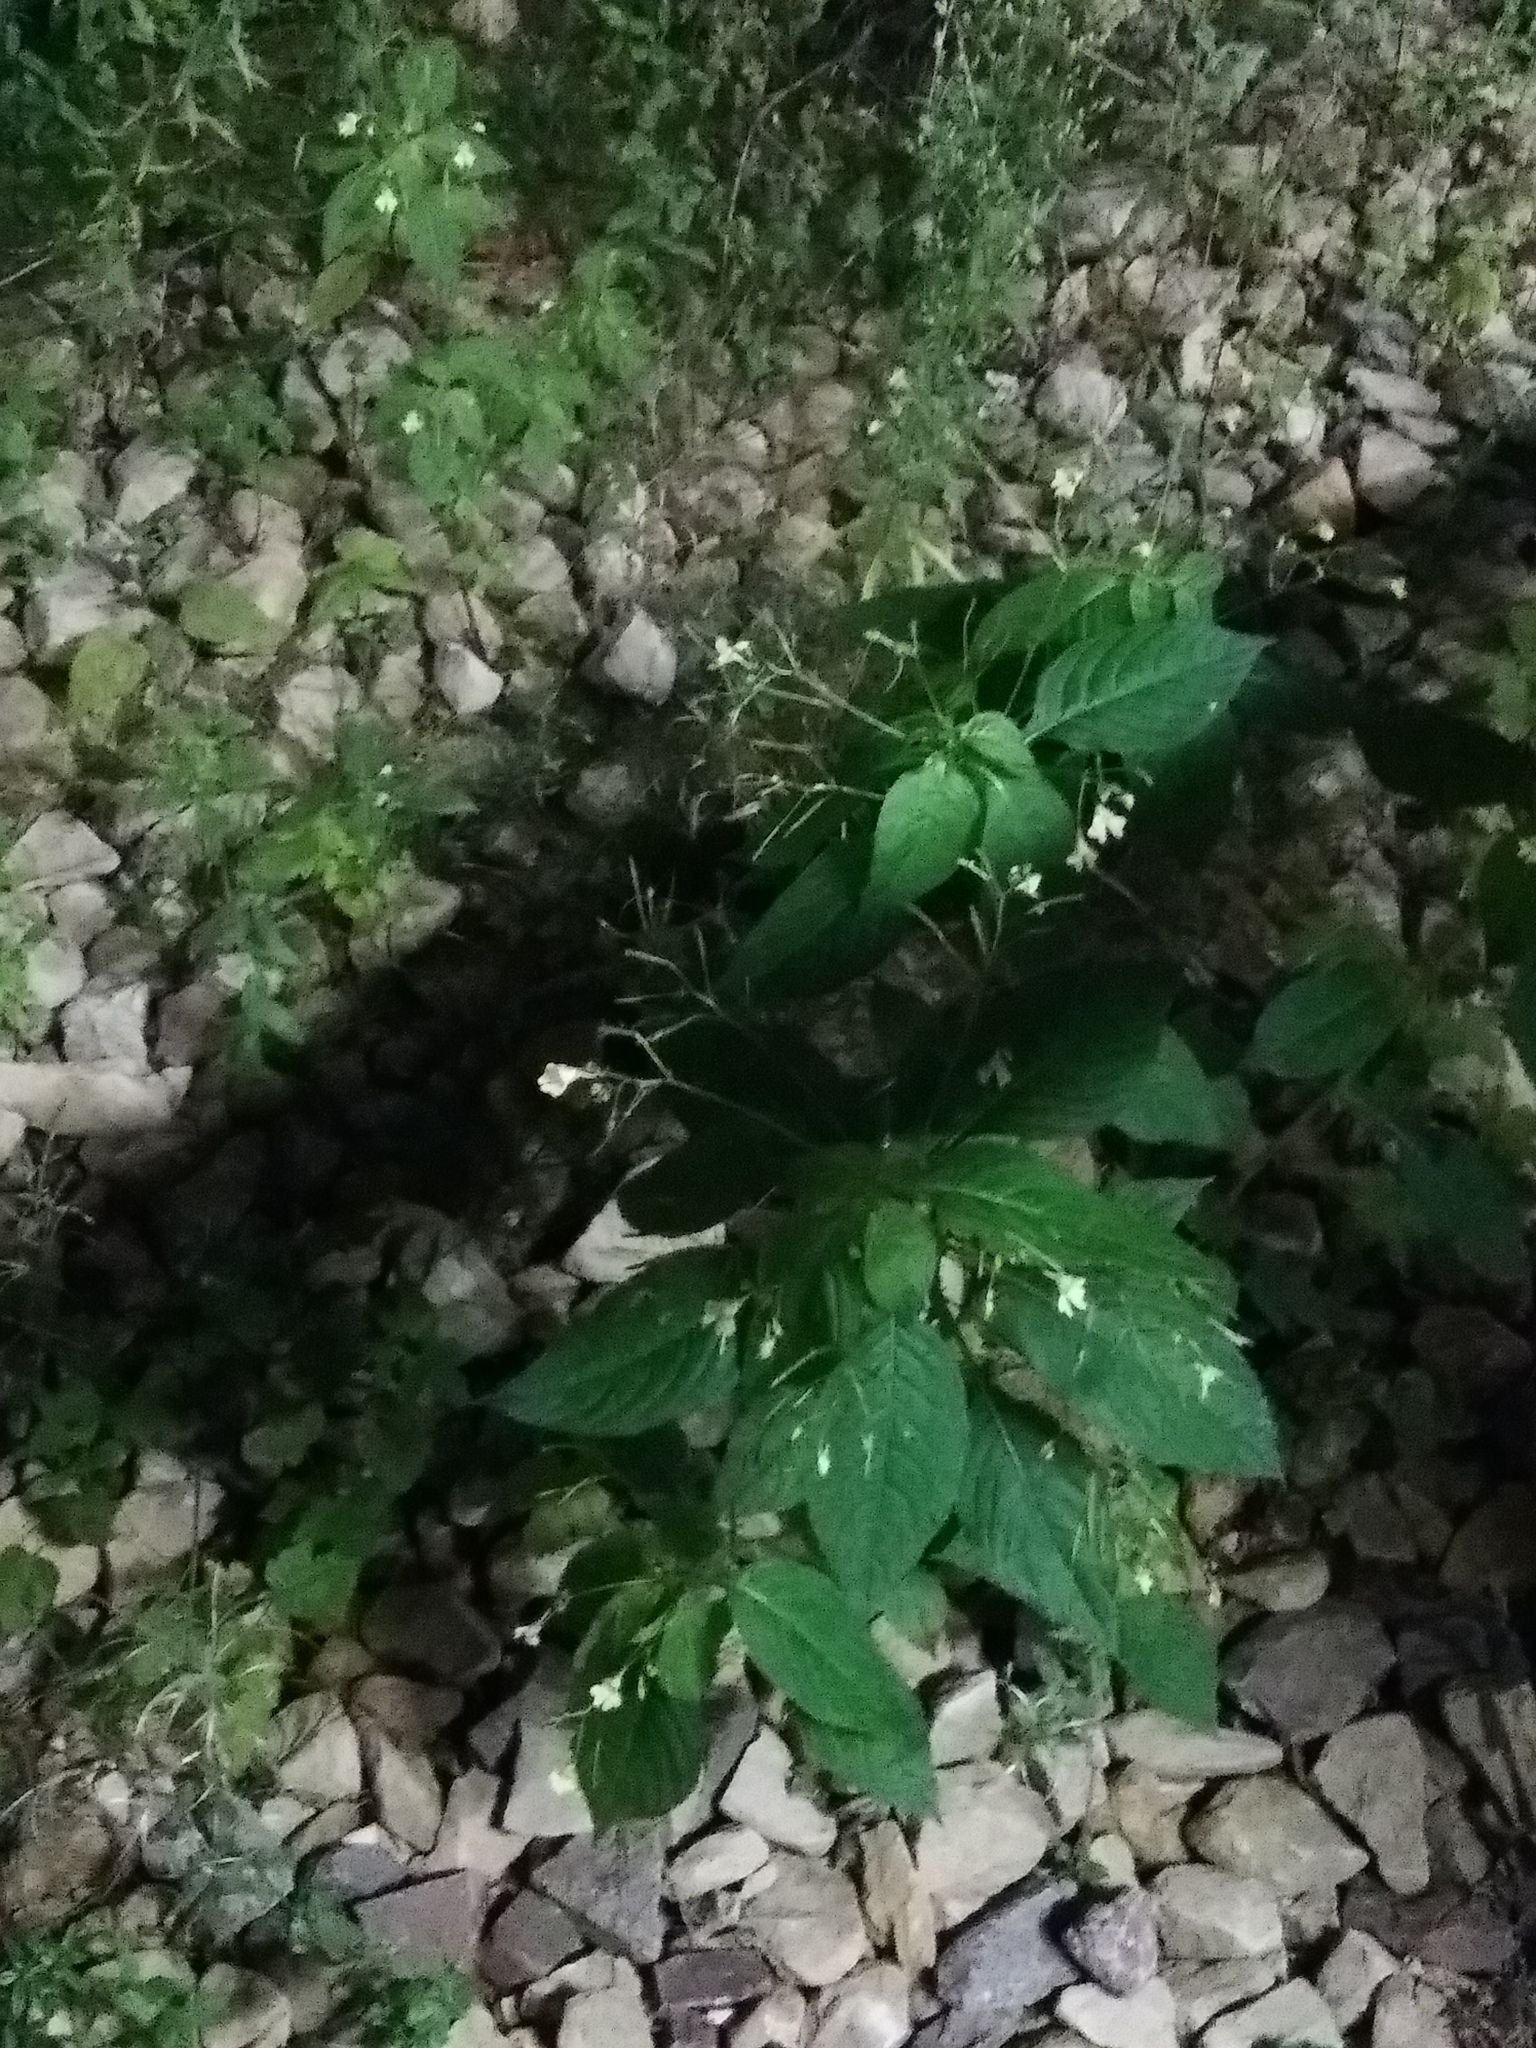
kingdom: Plantae
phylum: Tracheophyta
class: Magnoliopsida
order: Ericales
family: Balsaminaceae
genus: Impatiens
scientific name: Impatiens parviflora
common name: Small balsam
